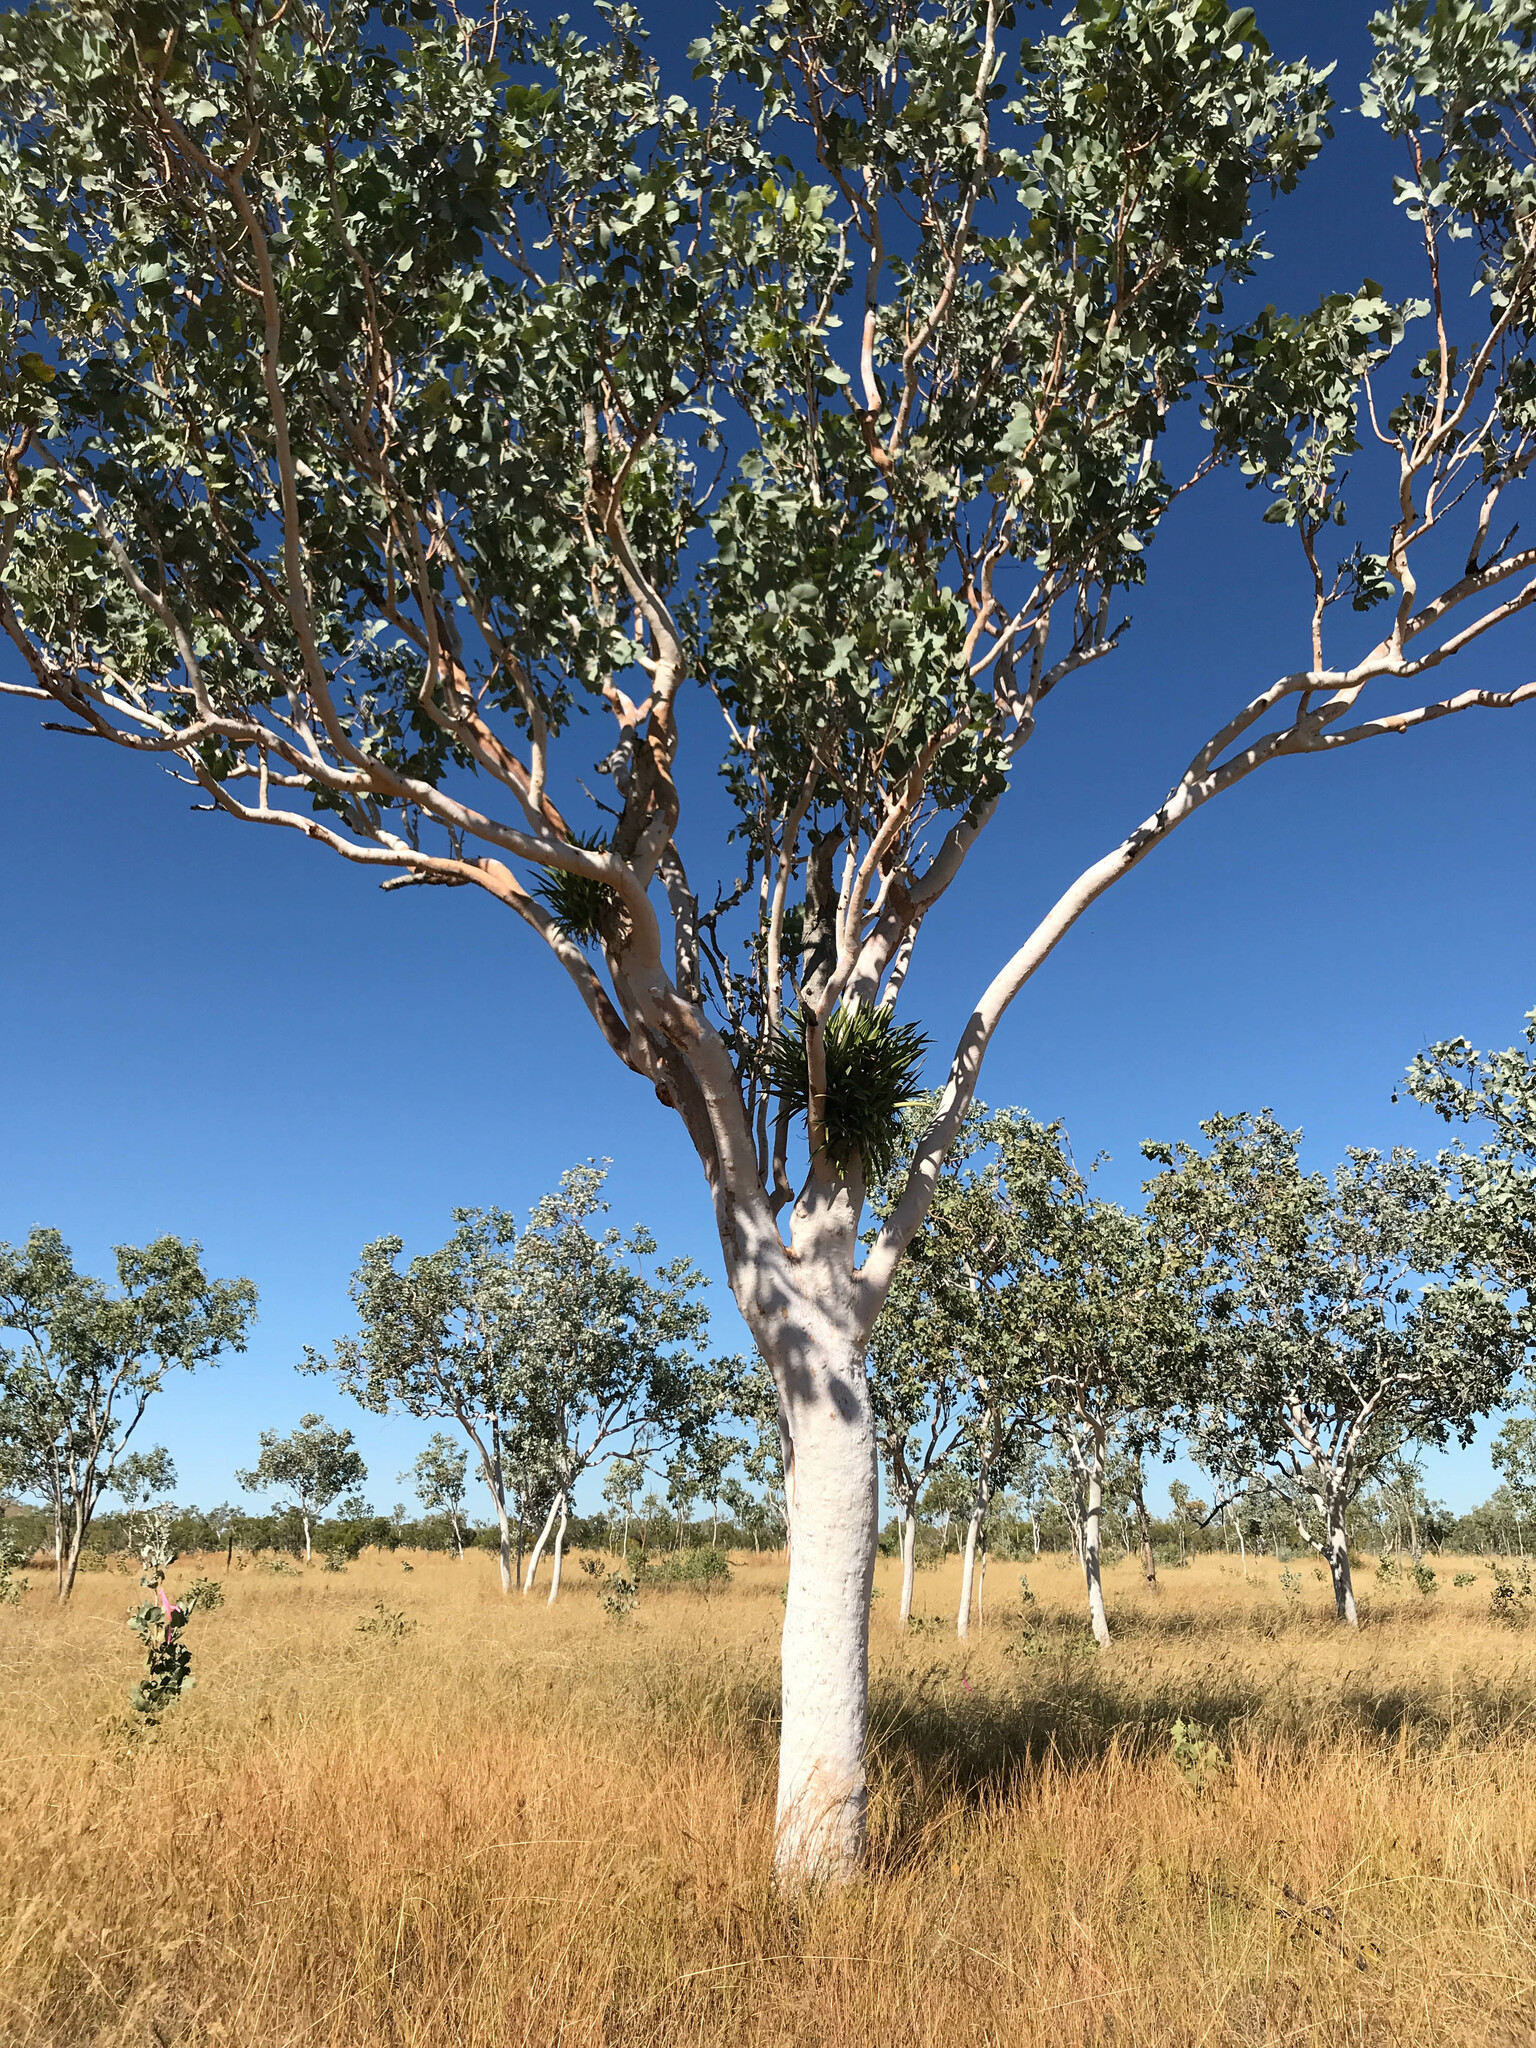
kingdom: Plantae
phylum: Tracheophyta
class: Liliopsida
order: Asparagales
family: Orchidaceae
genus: Cymbidium
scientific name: Cymbidium canaliculatum
